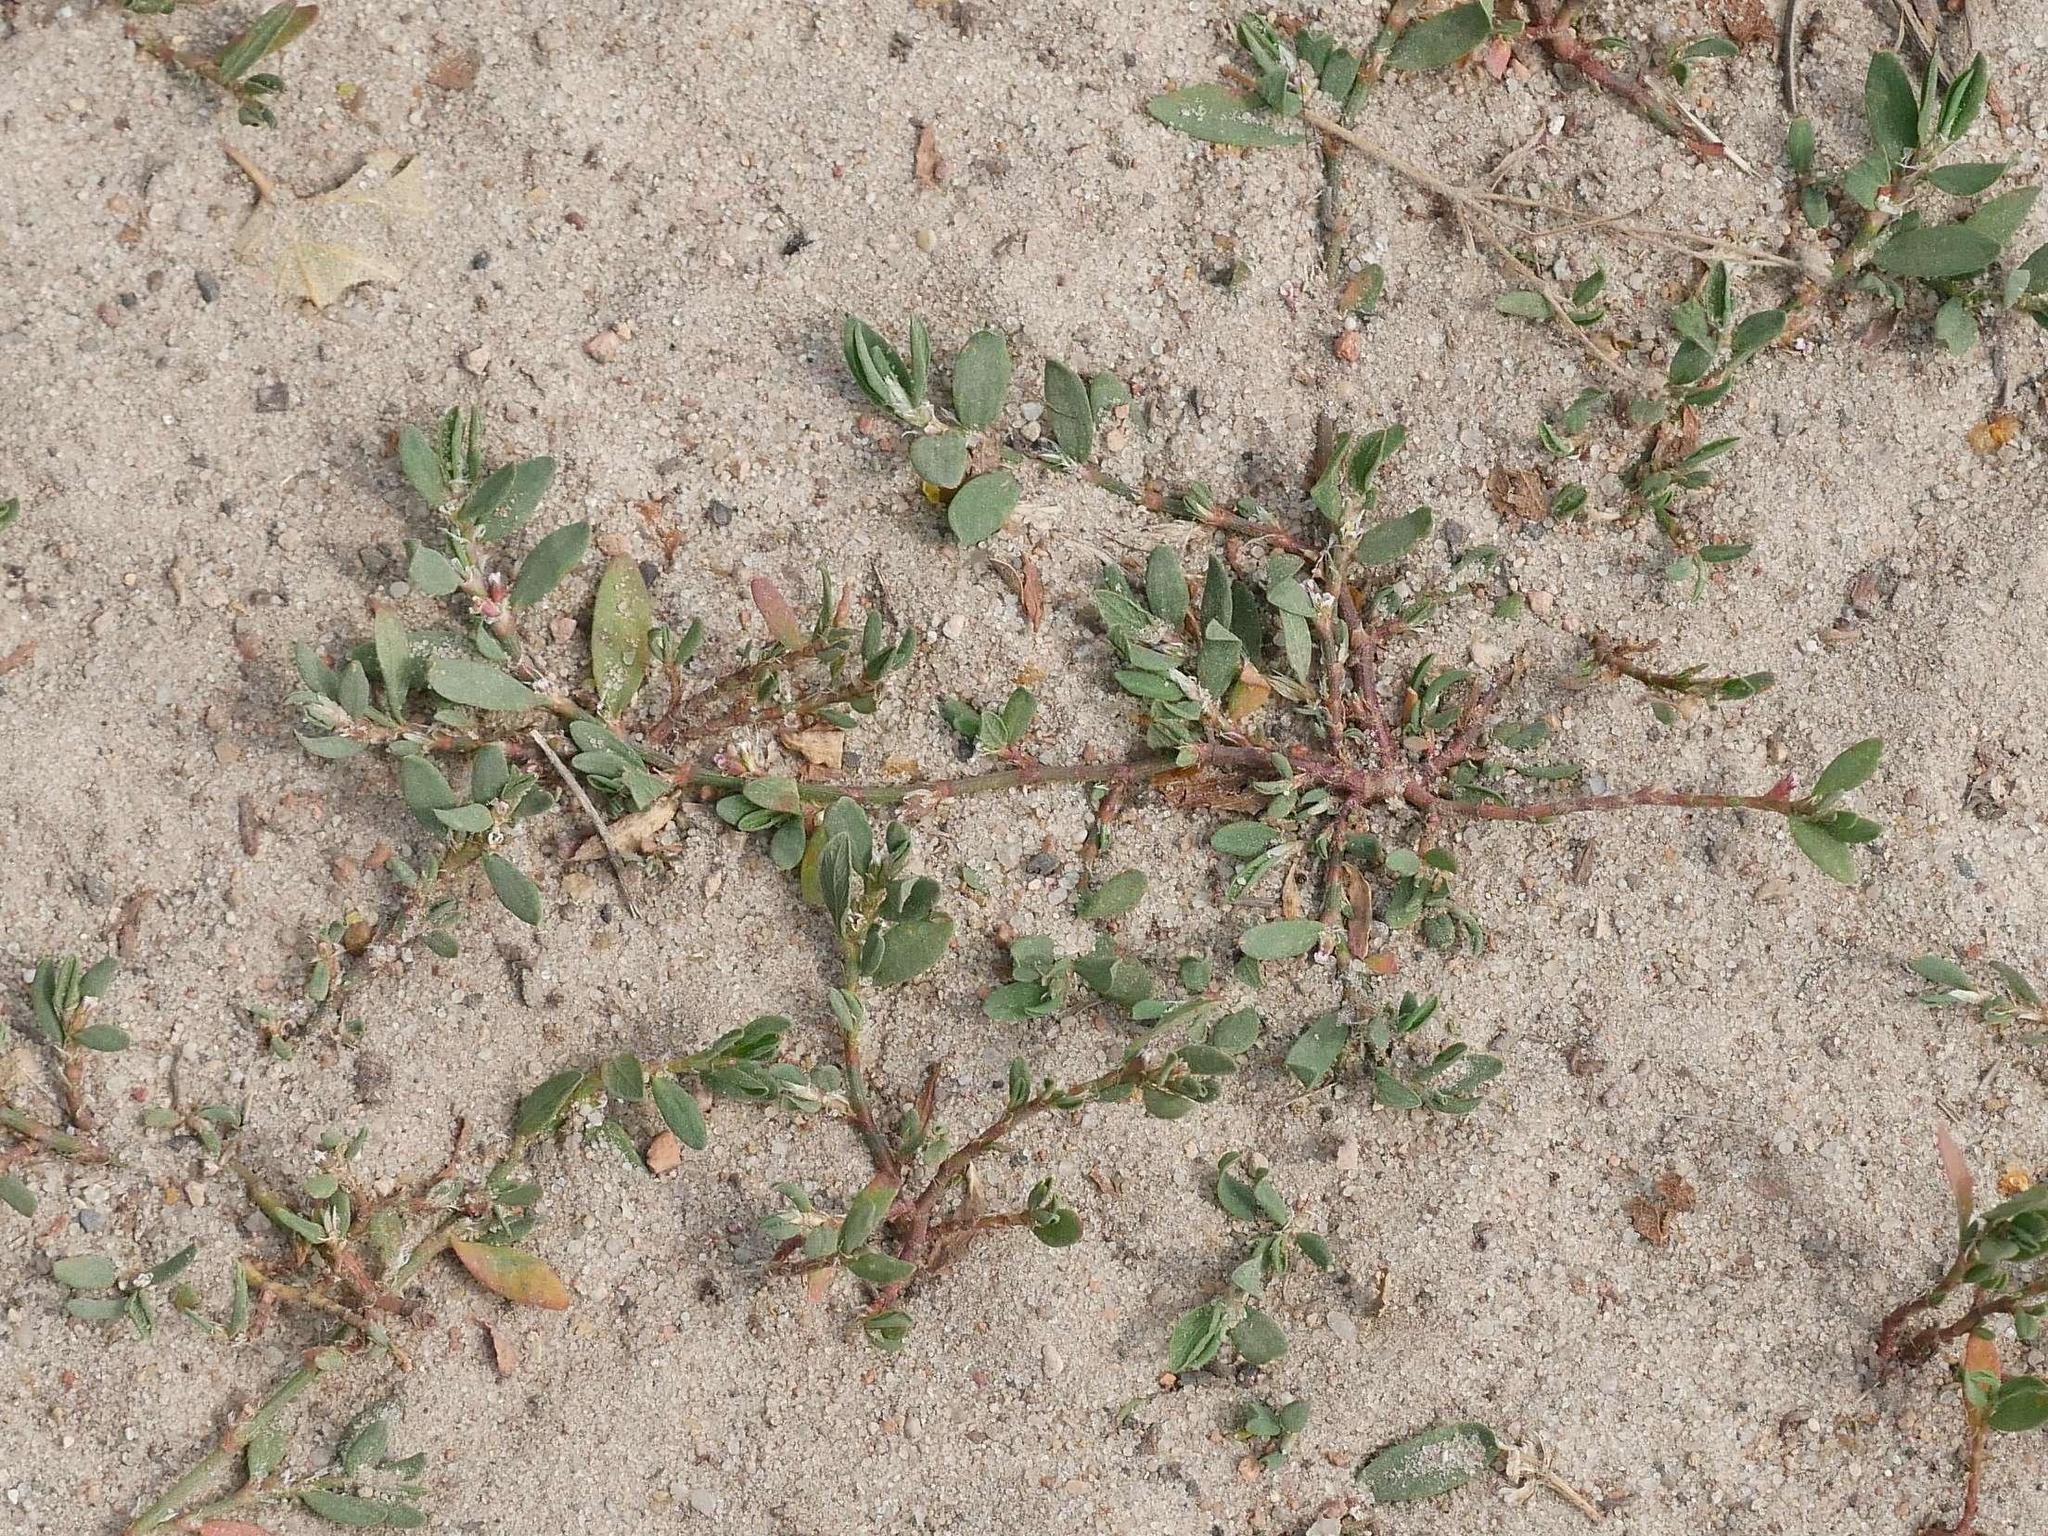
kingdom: Plantae
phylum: Tracheophyta
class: Magnoliopsida
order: Caryophyllales
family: Polygonaceae
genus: Polygonum
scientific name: Polygonum aviculare
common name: Prostrate knotweed
